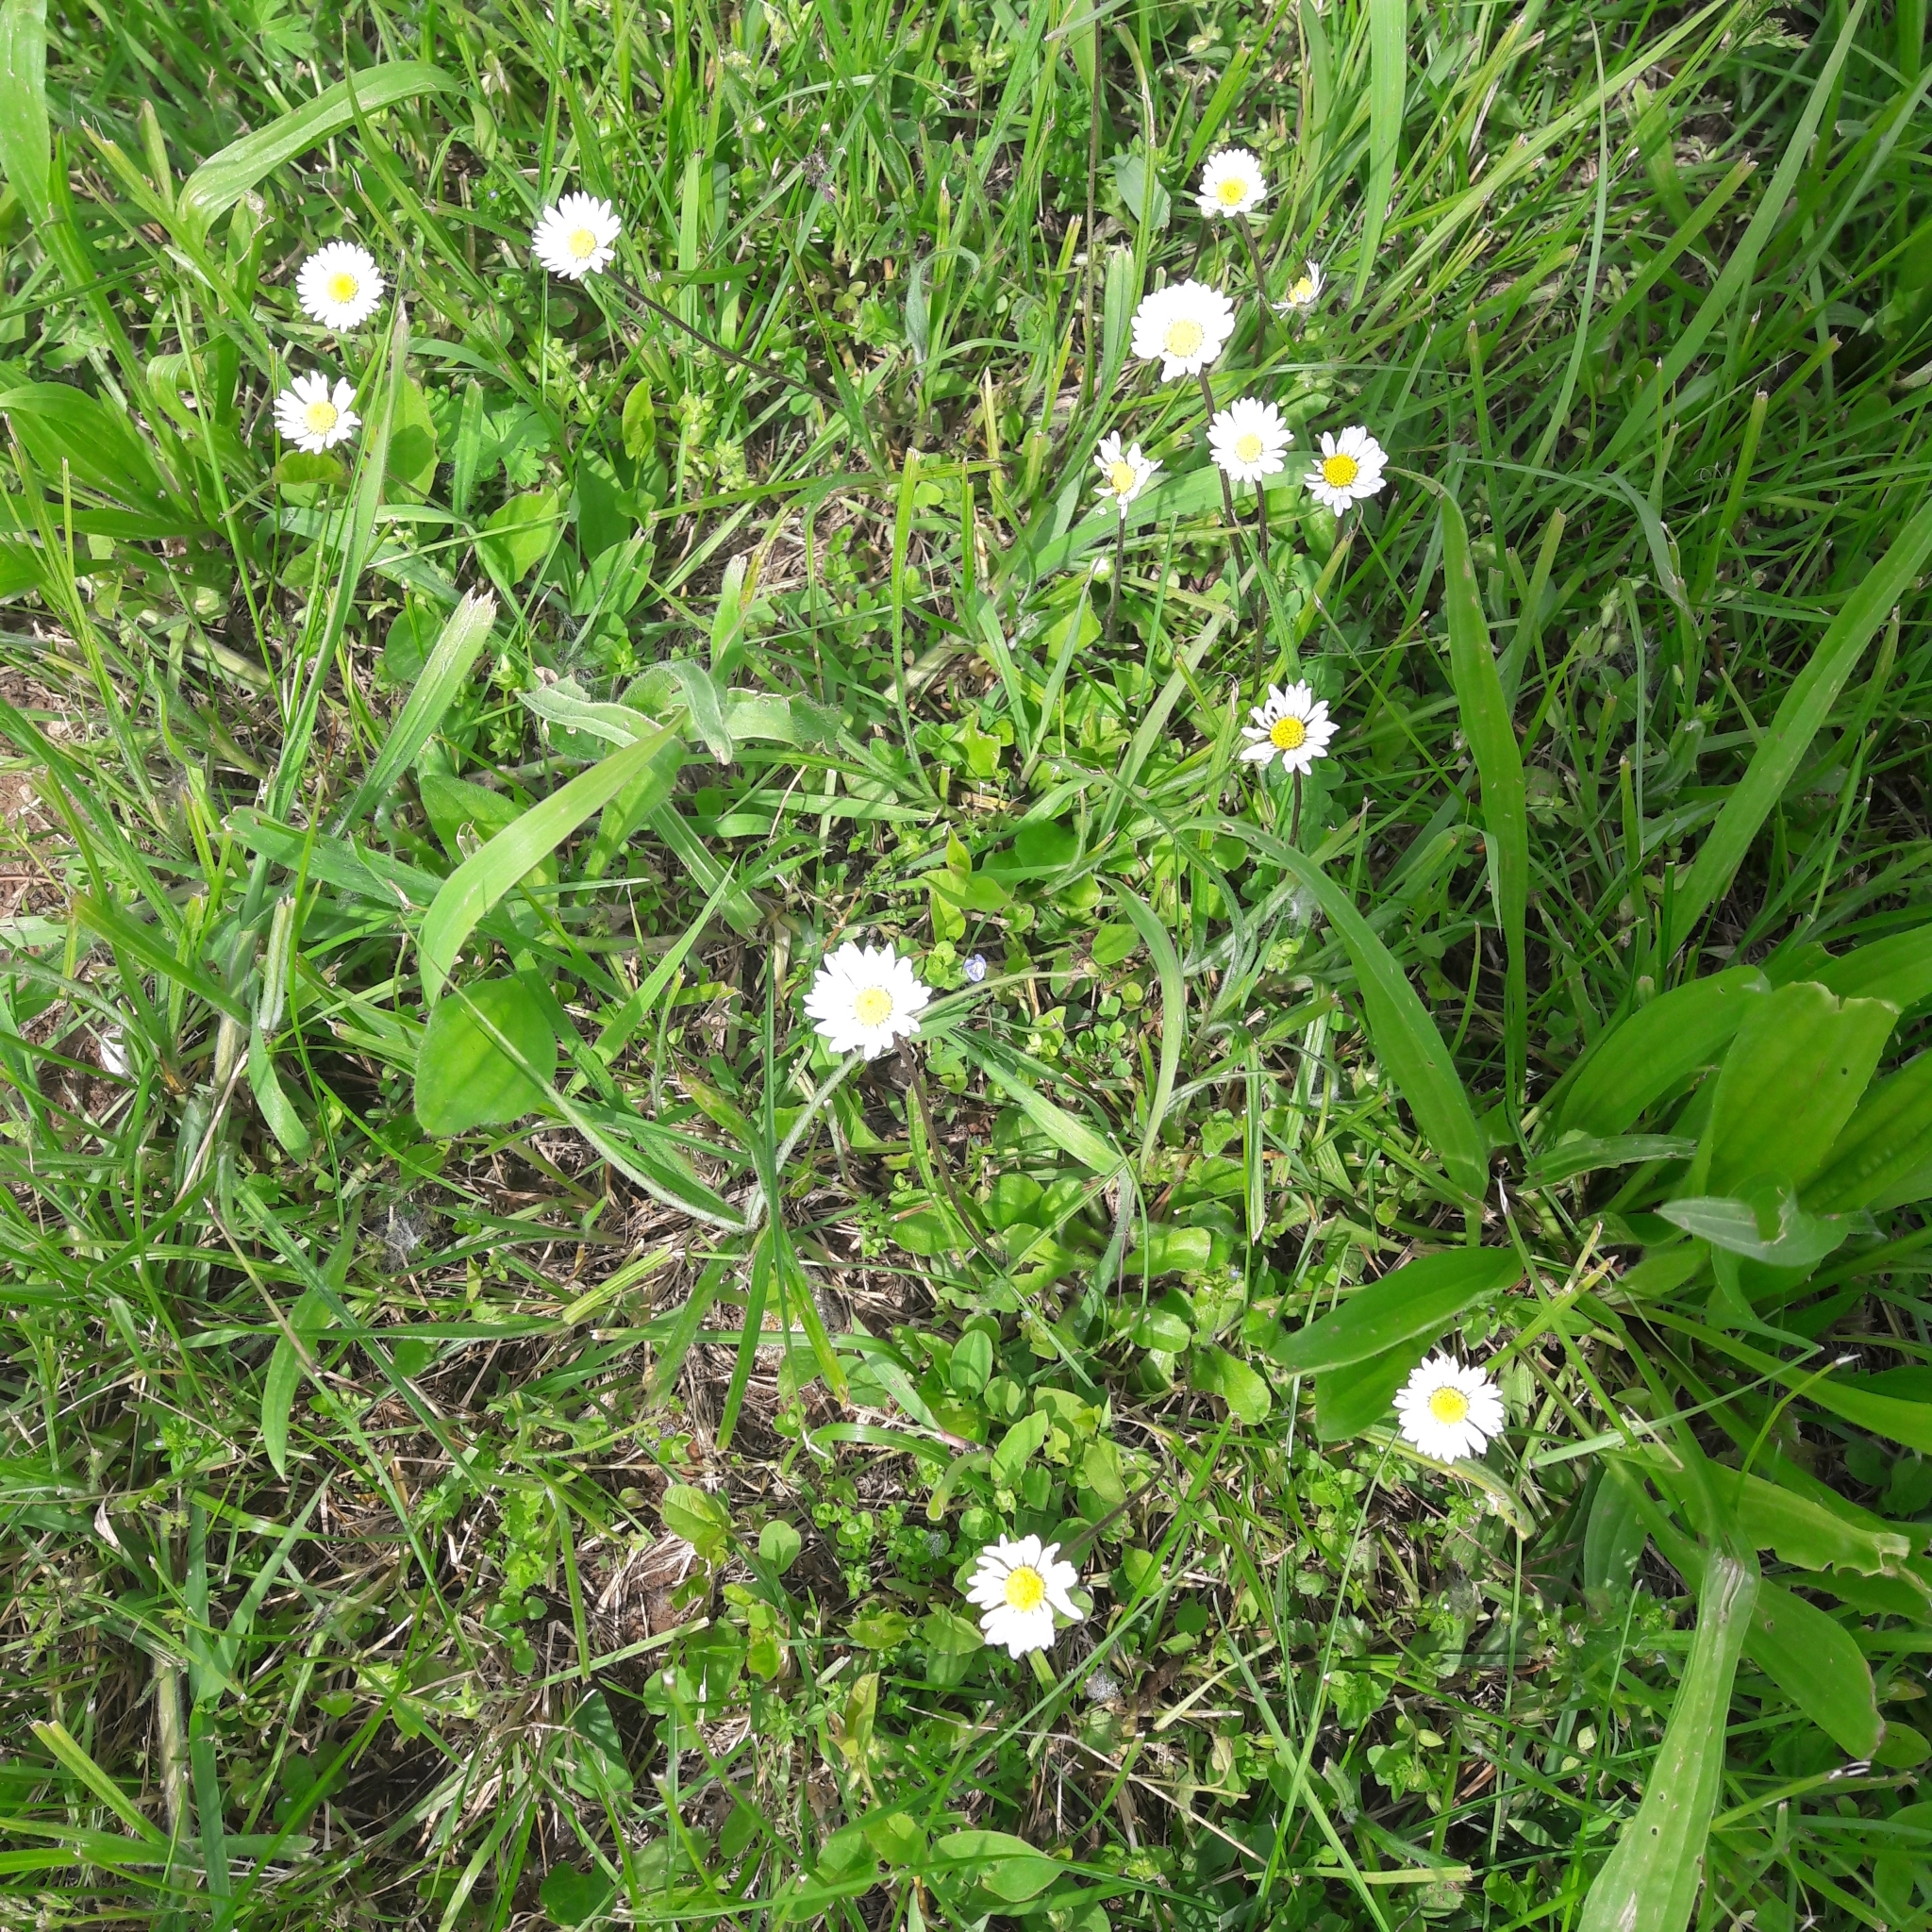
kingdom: Plantae
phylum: Tracheophyta
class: Magnoliopsida
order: Asterales
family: Asteraceae
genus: Bellis
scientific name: Bellis perennis
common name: Lawndaisy
